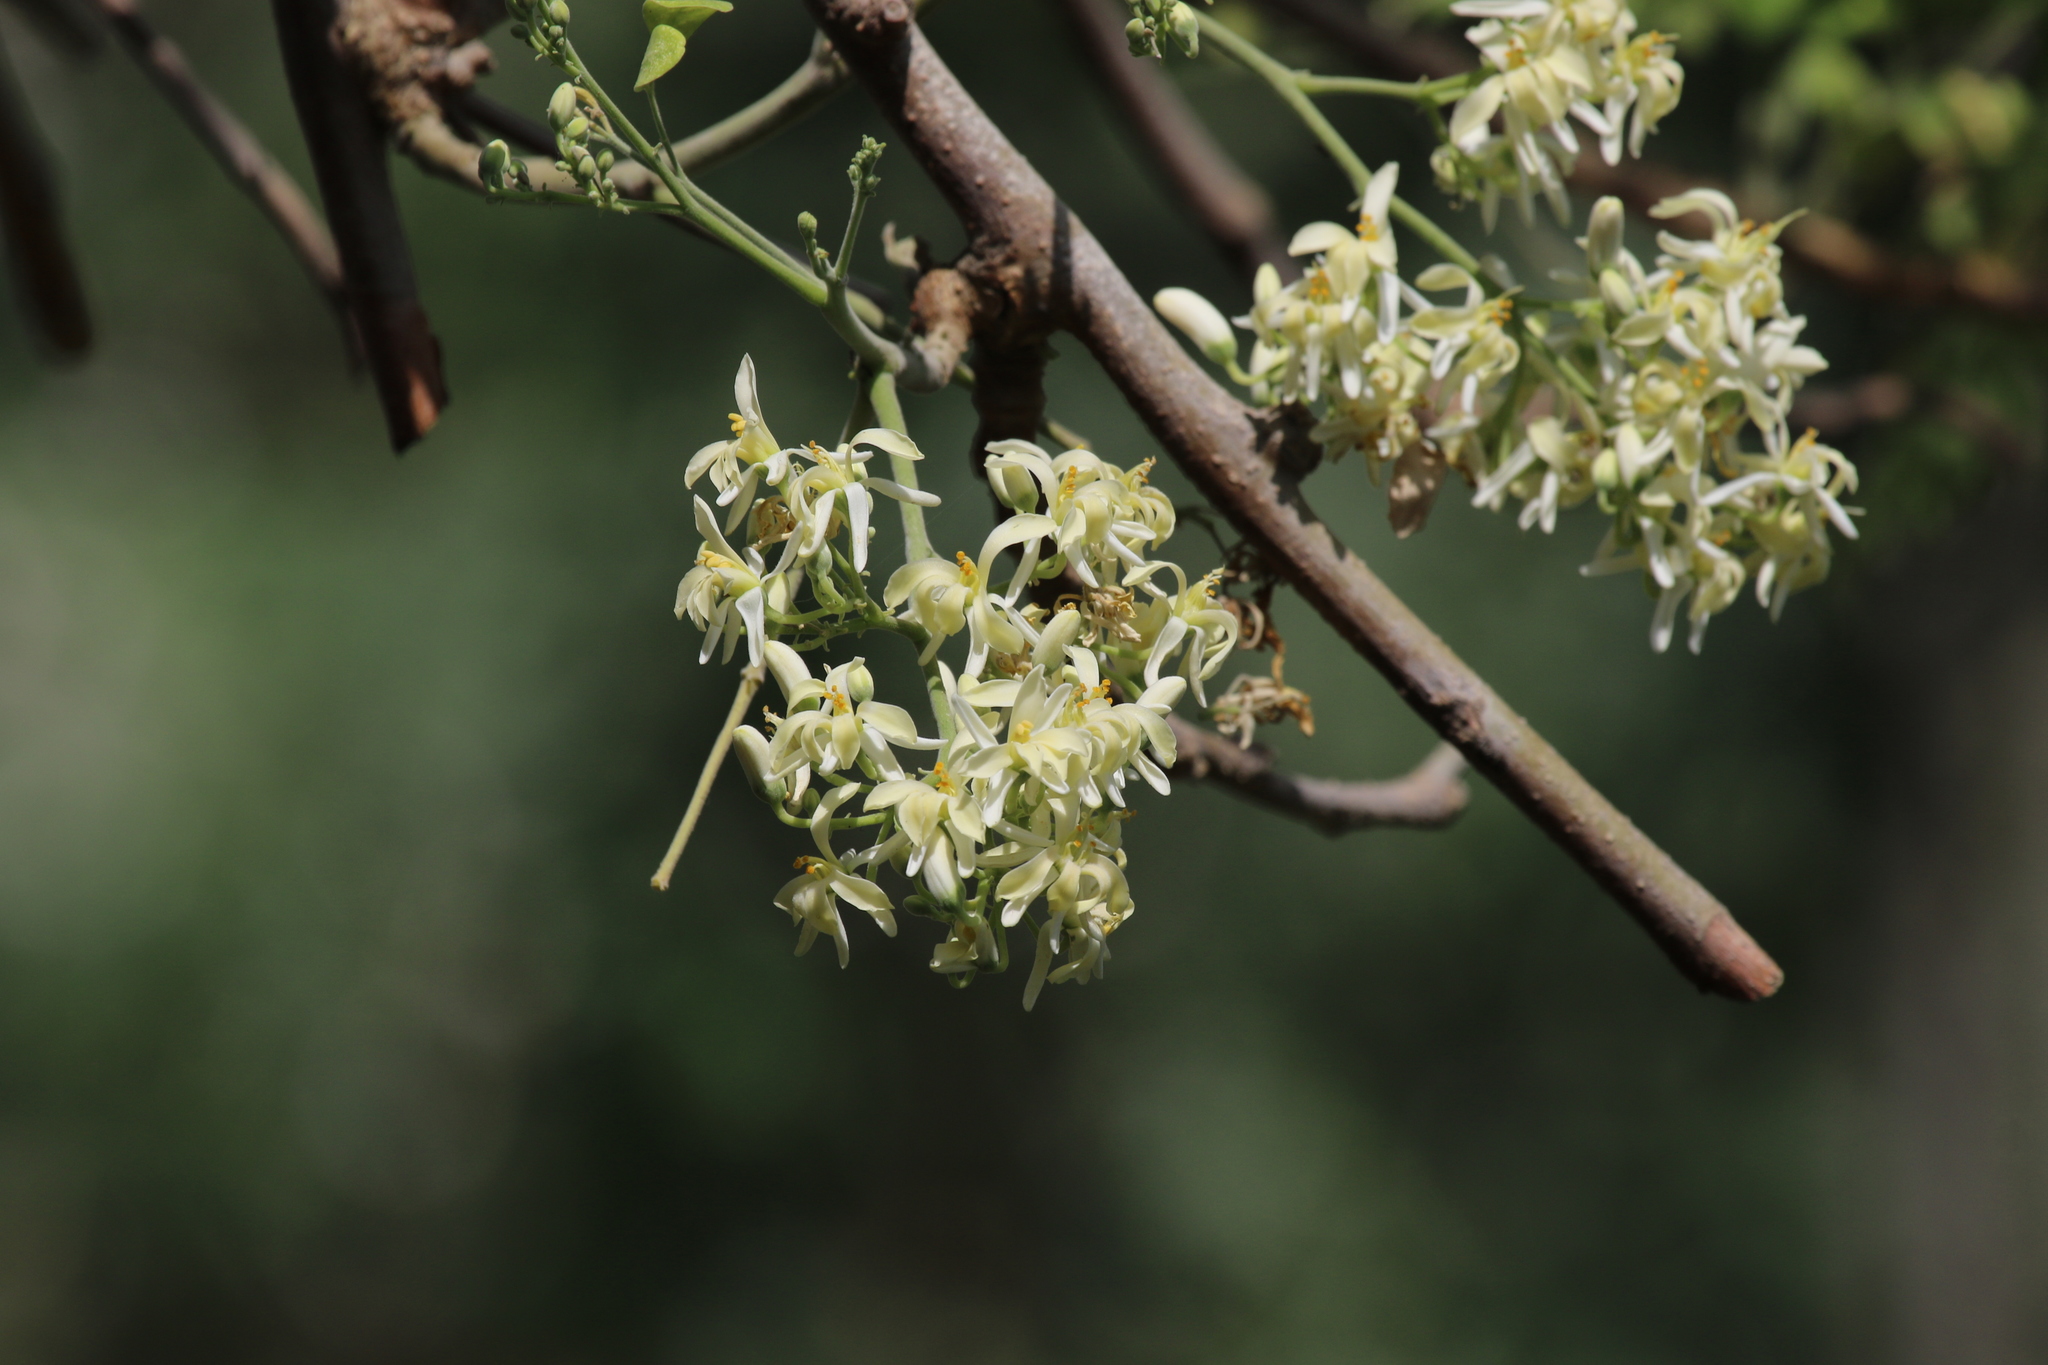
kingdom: Plantae
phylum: Tracheophyta
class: Magnoliopsida
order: Brassicales
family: Moringaceae
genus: Moringa
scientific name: Moringa oleifera
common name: Horseradish-tree
